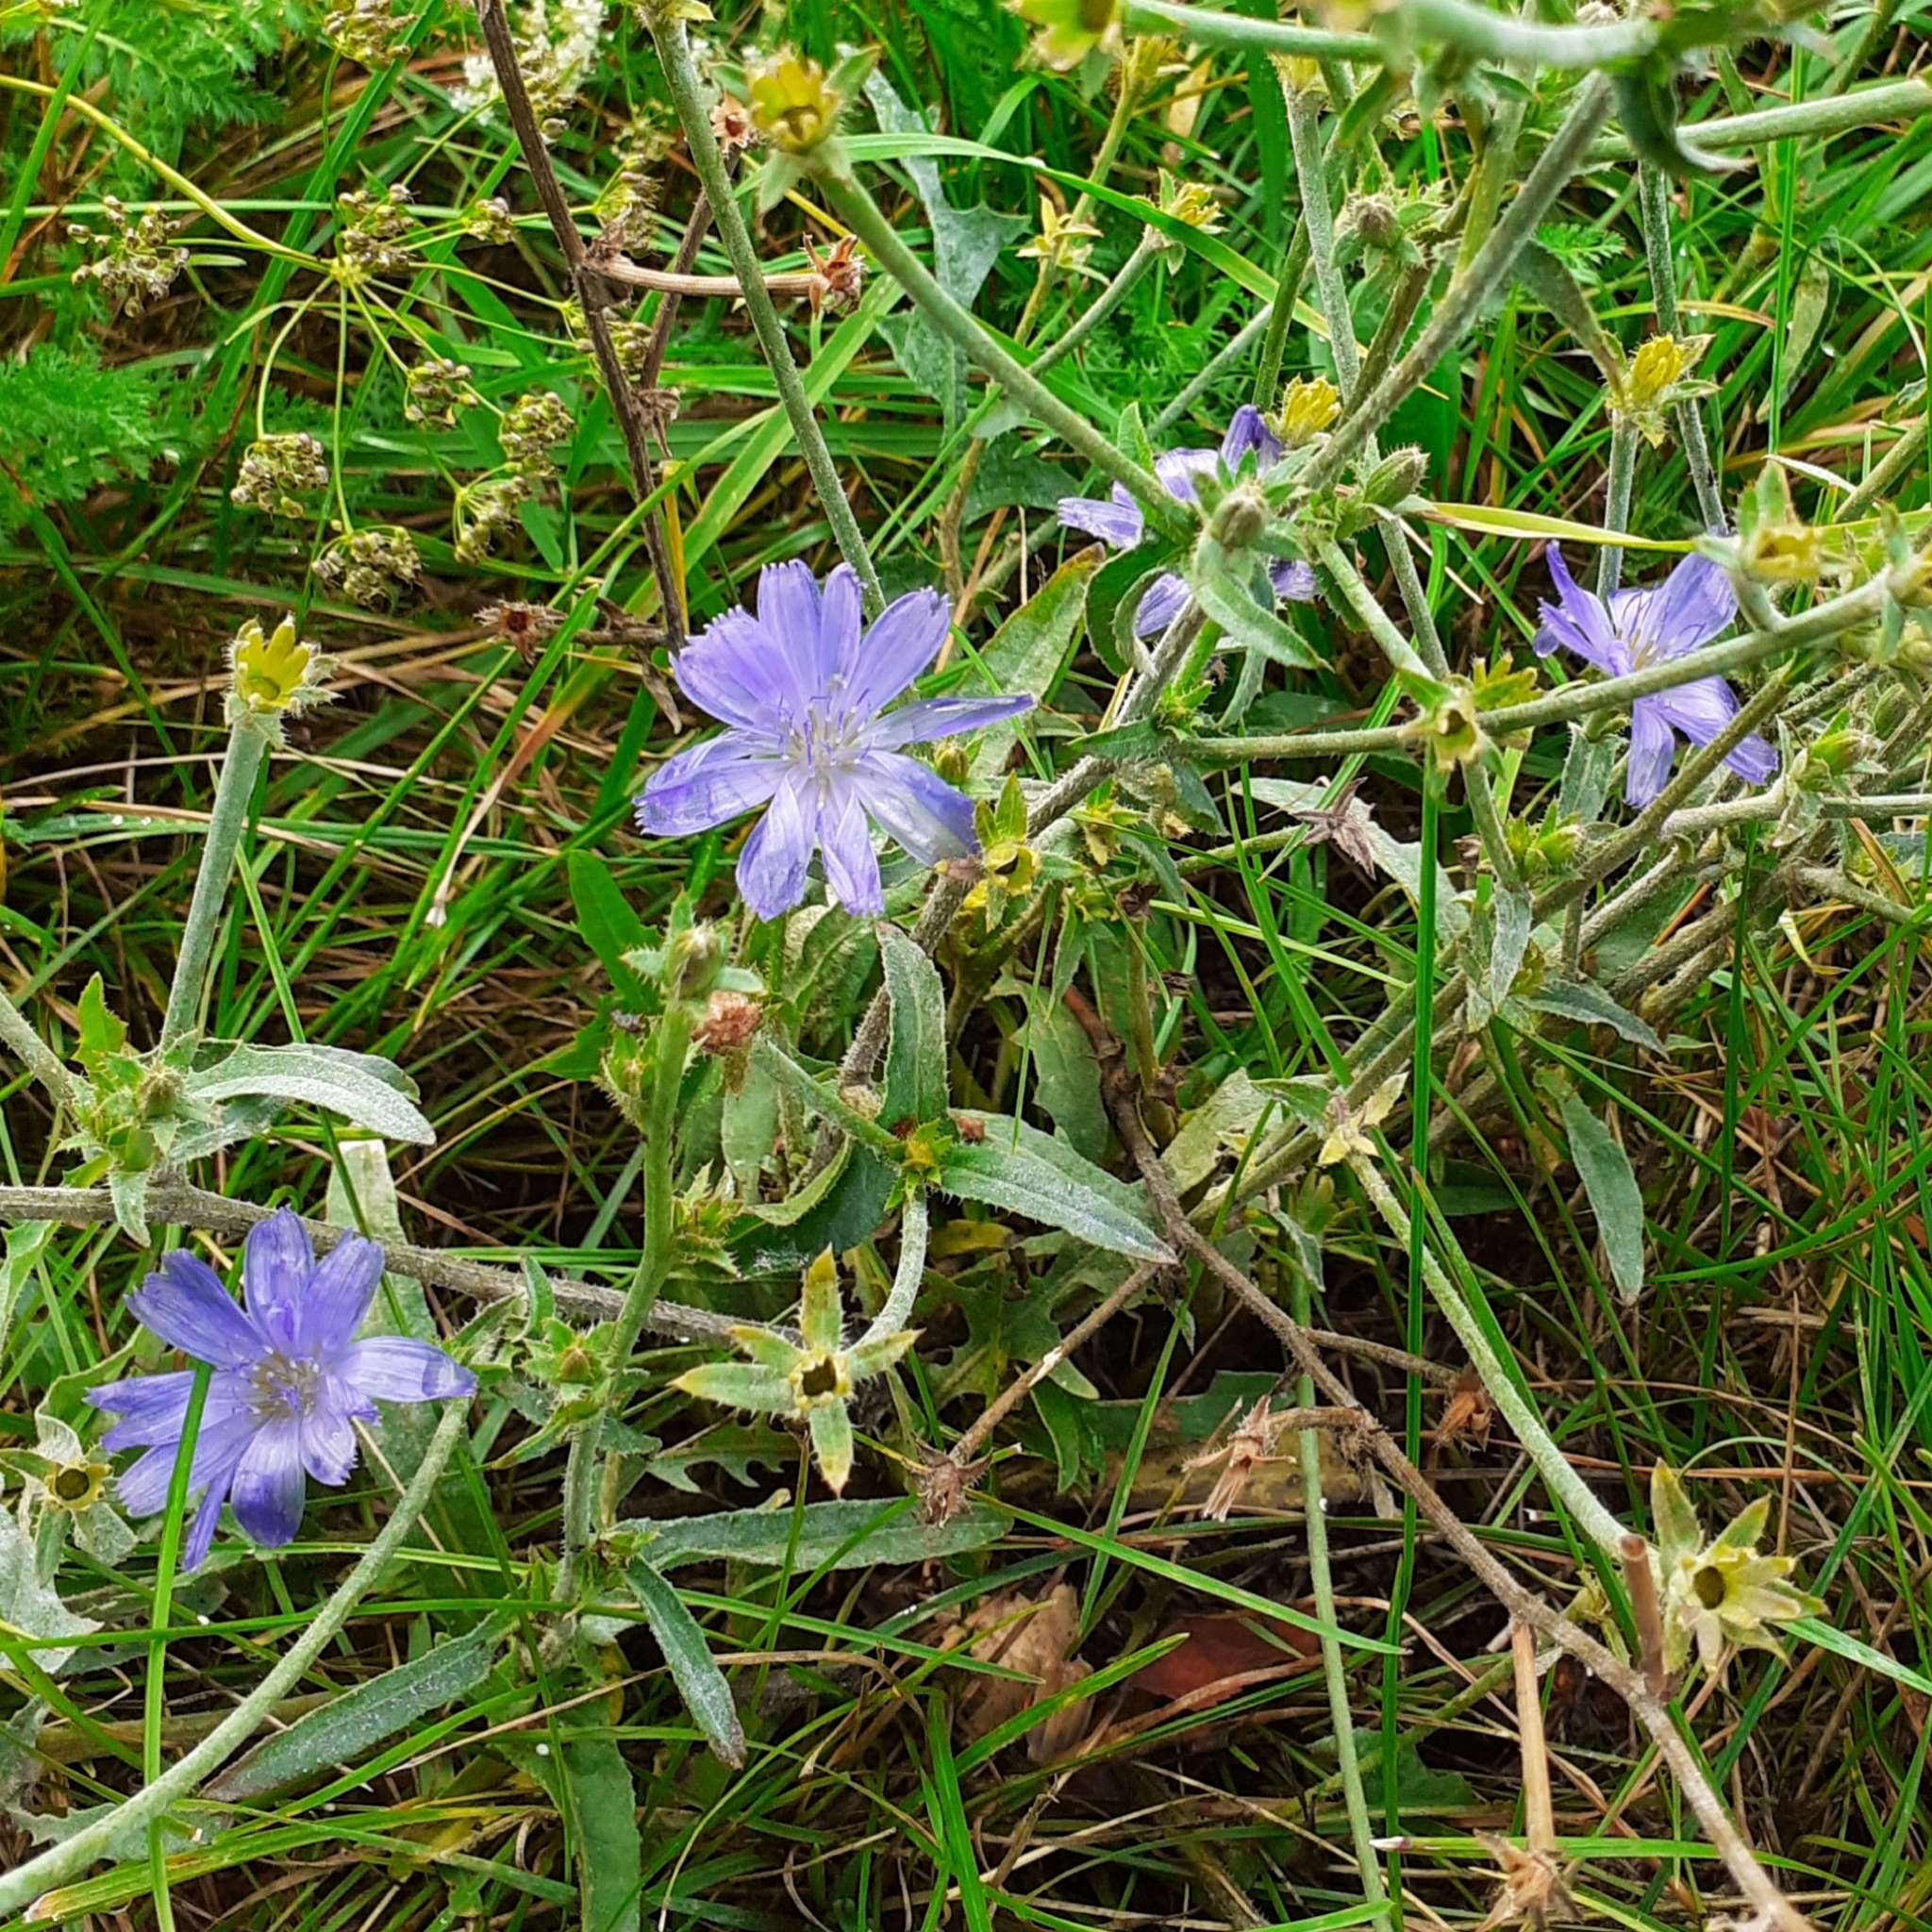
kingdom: Plantae
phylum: Tracheophyta
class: Magnoliopsida
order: Asterales
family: Asteraceae
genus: Cichorium
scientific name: Cichorium intybus
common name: Chicory
